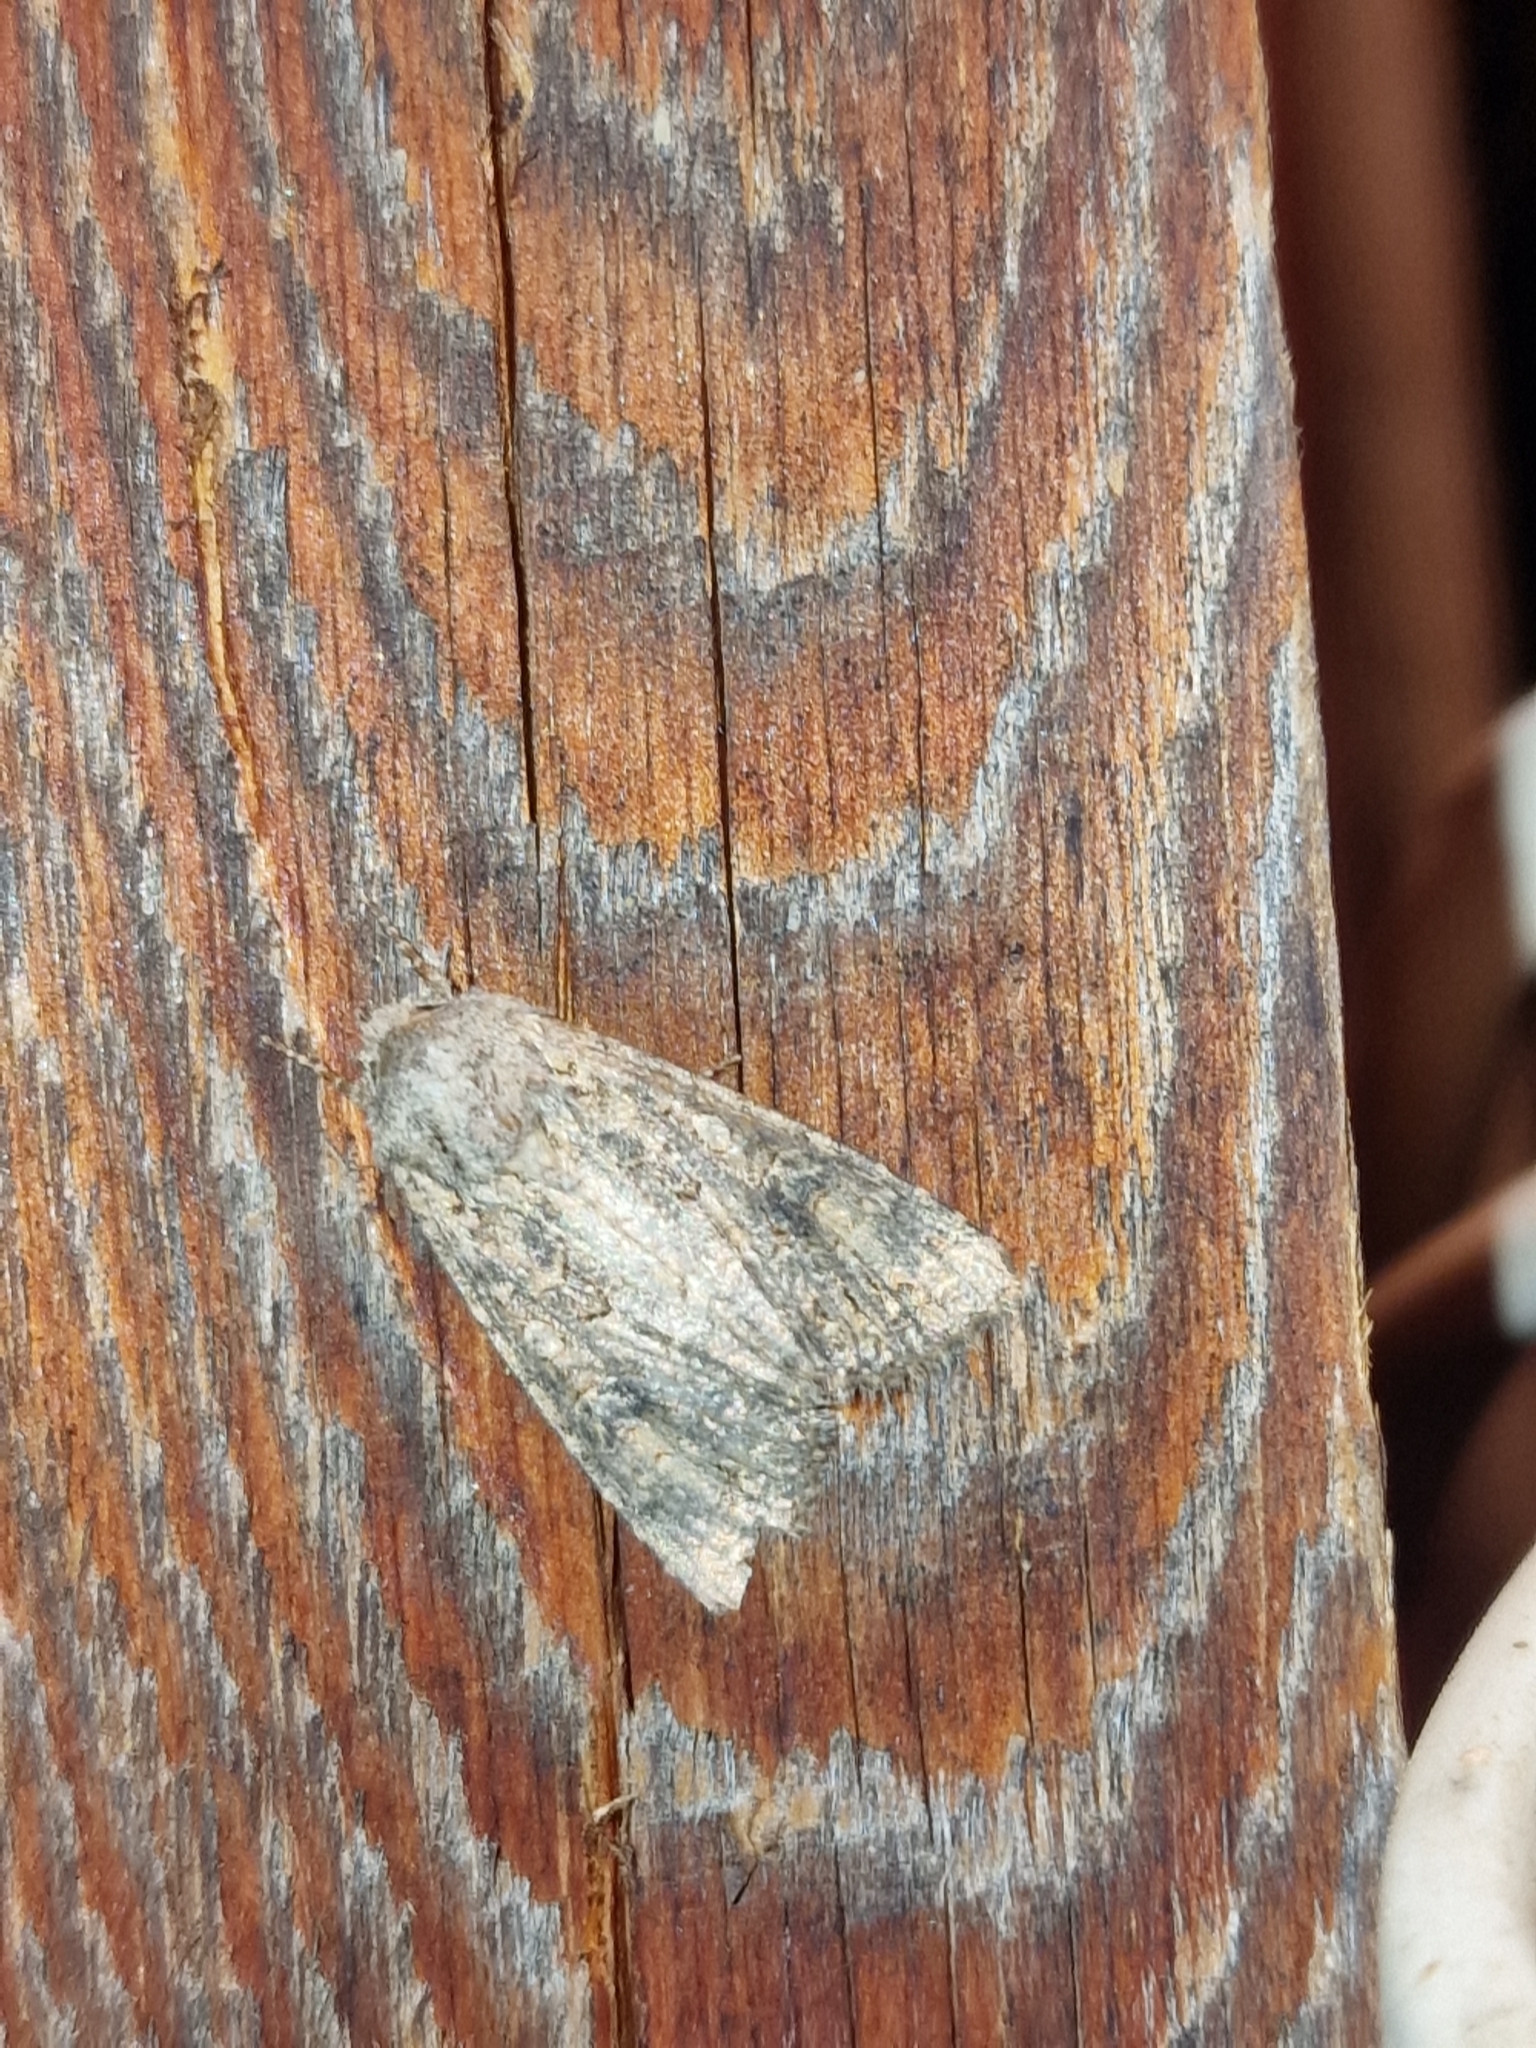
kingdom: Animalia
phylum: Arthropoda
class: Insecta
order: Lepidoptera
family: Noctuidae
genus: Anarta
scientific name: Anarta trifolii
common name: Clover cutworm moth
